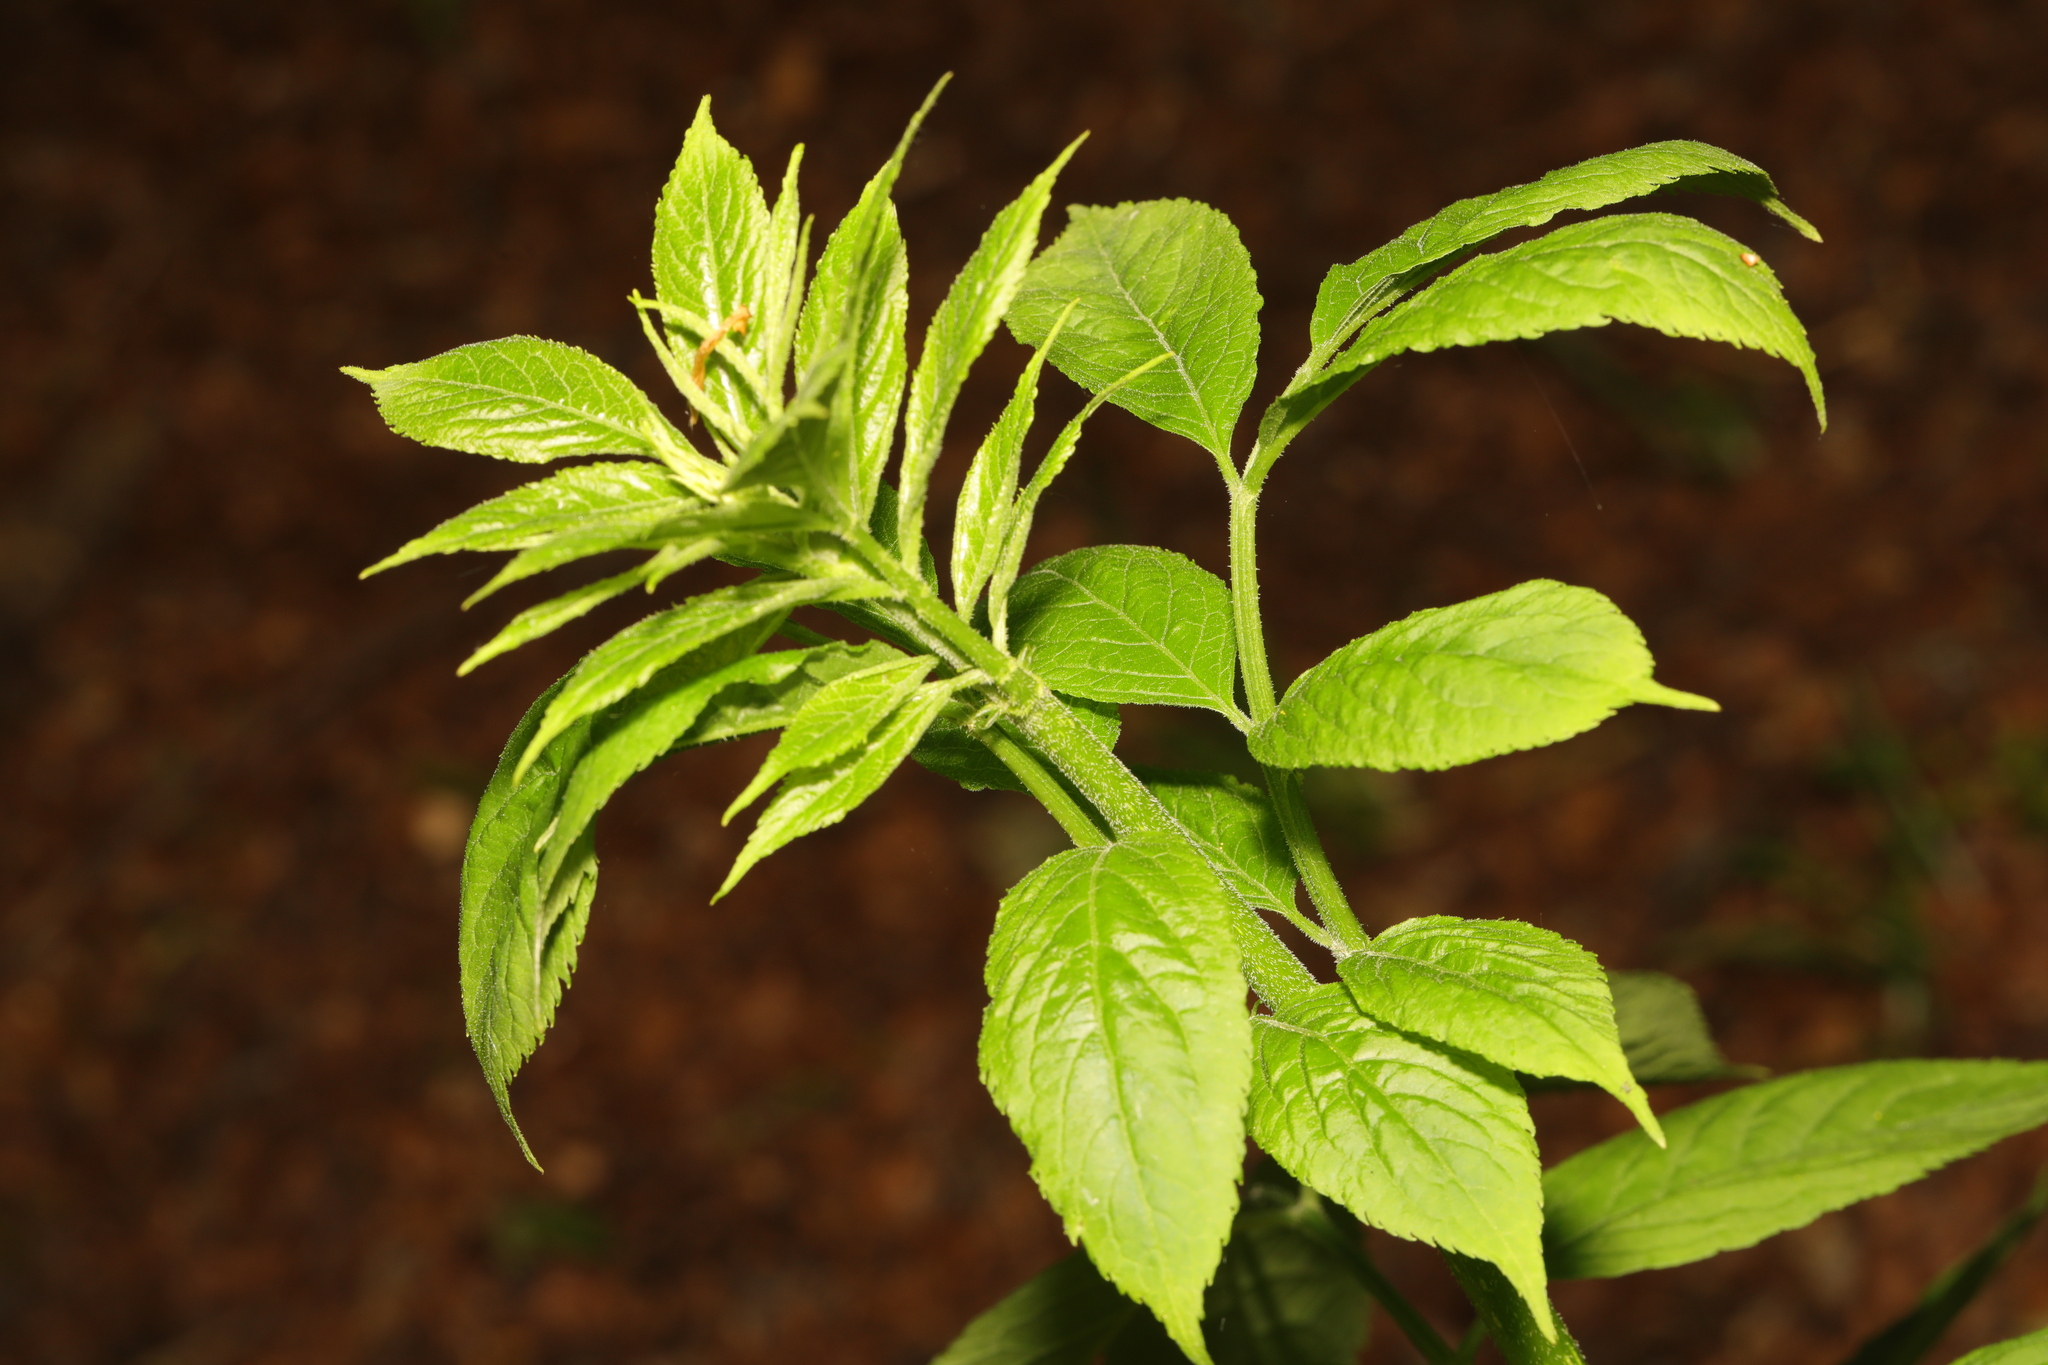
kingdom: Plantae
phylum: Tracheophyta
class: Magnoliopsida
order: Dipsacales
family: Viburnaceae
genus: Sambucus
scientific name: Sambucus nigra
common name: Elder
